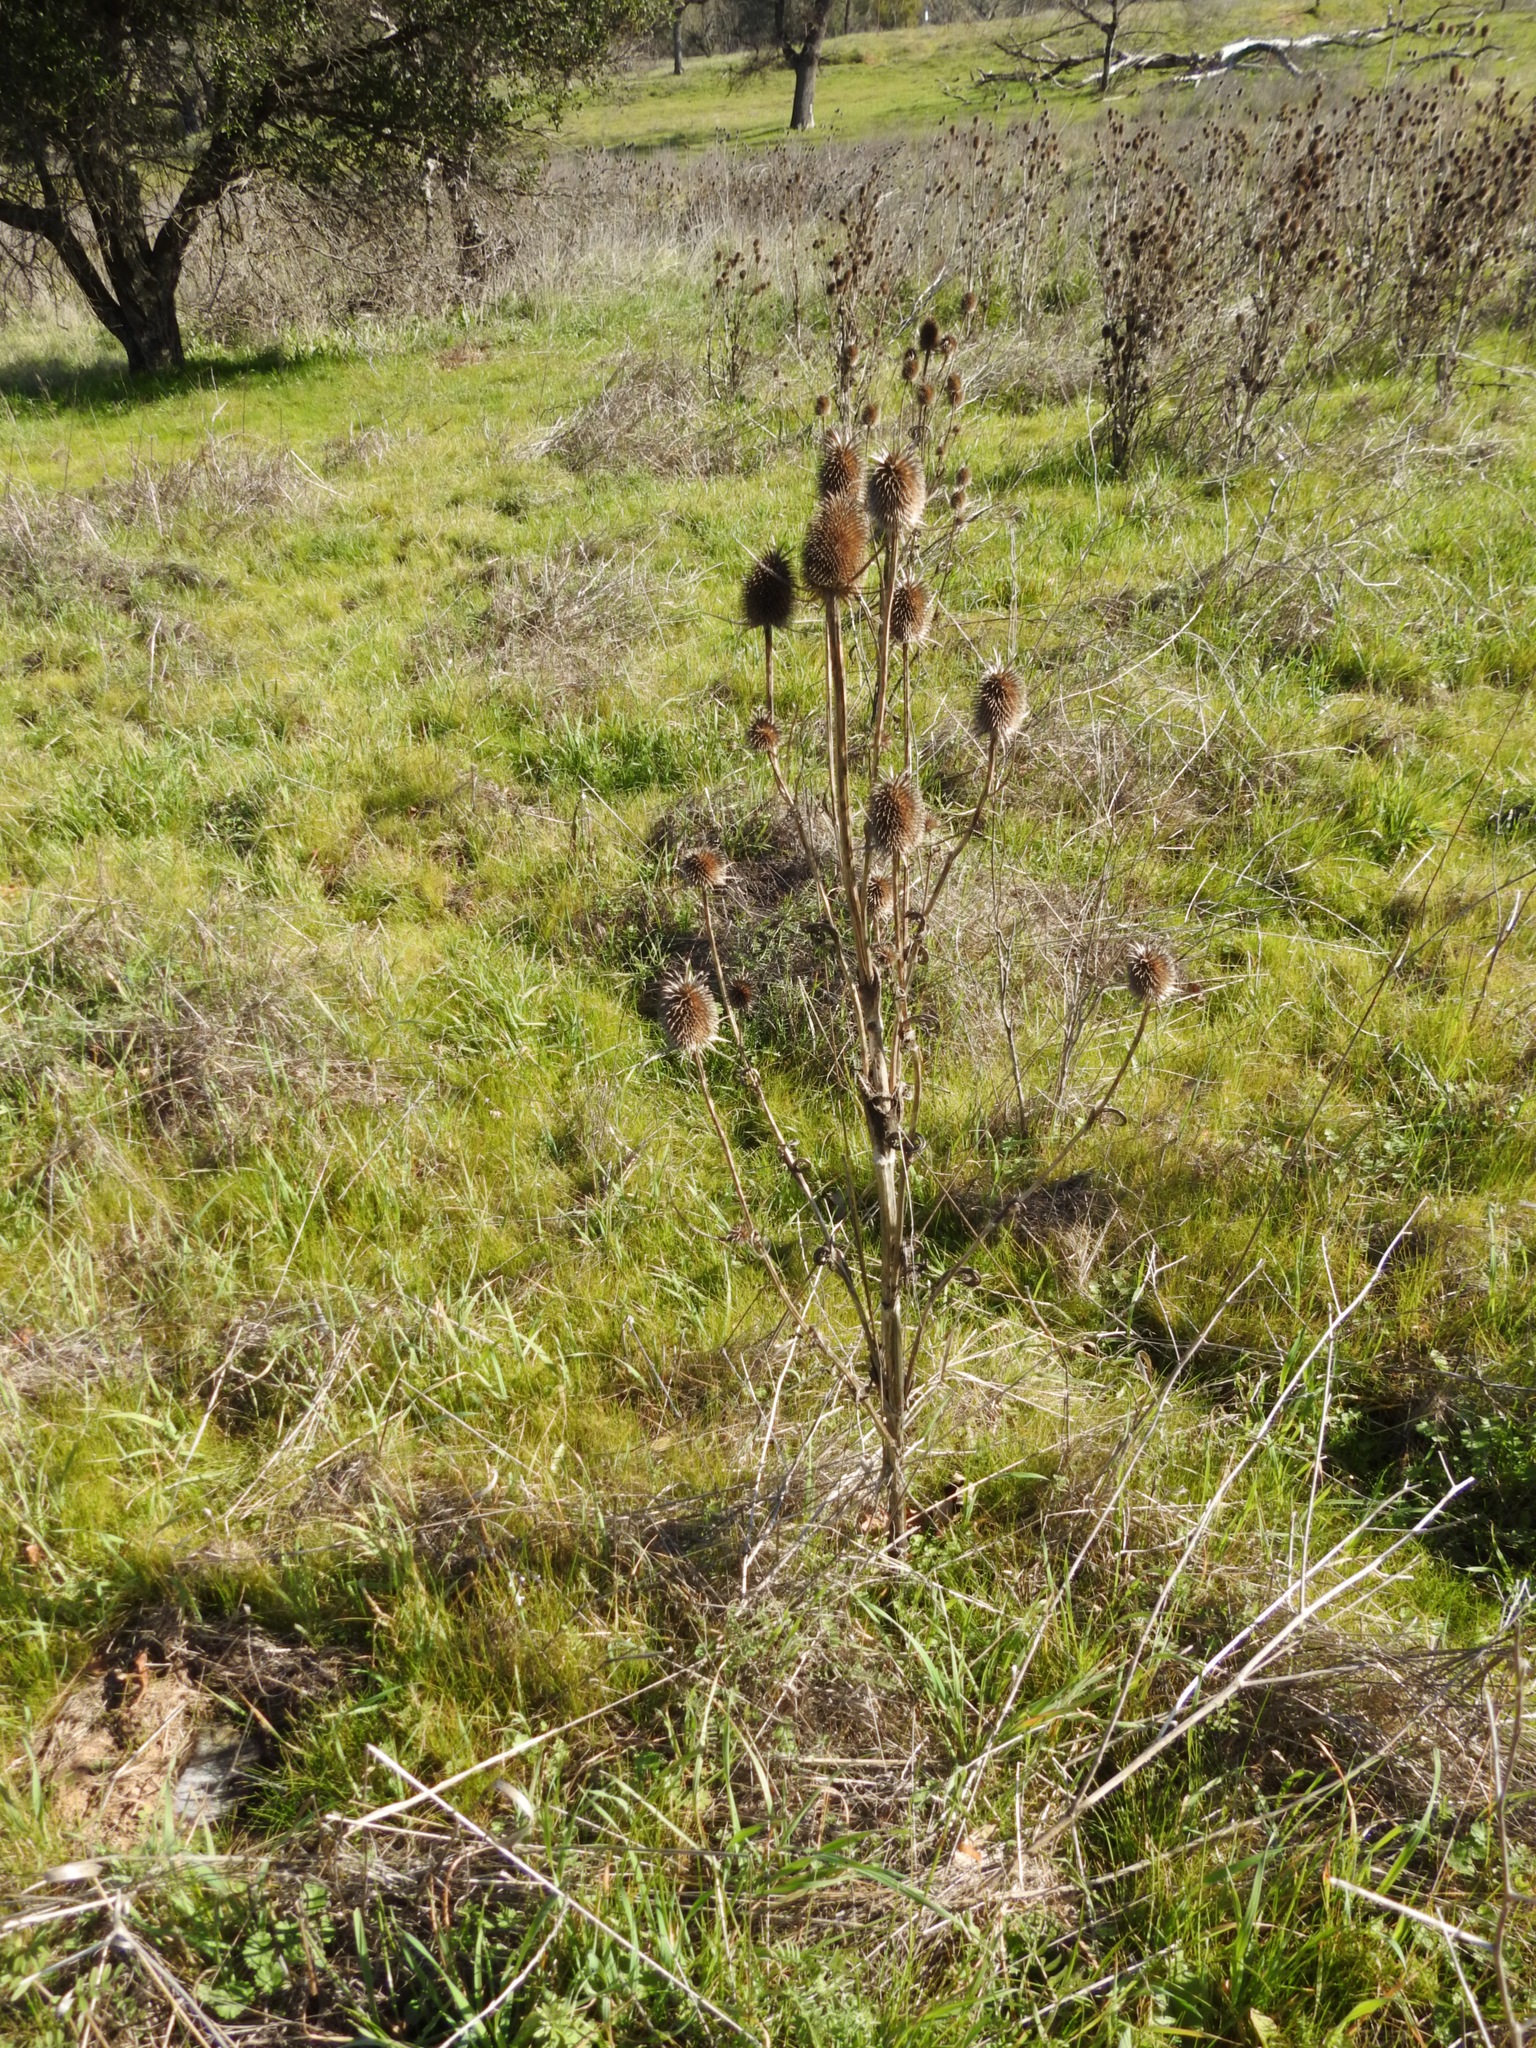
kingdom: Plantae
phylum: Tracheophyta
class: Magnoliopsida
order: Dipsacales
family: Caprifoliaceae
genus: Dipsacus
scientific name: Dipsacus sativus
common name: Fuller's teasel
